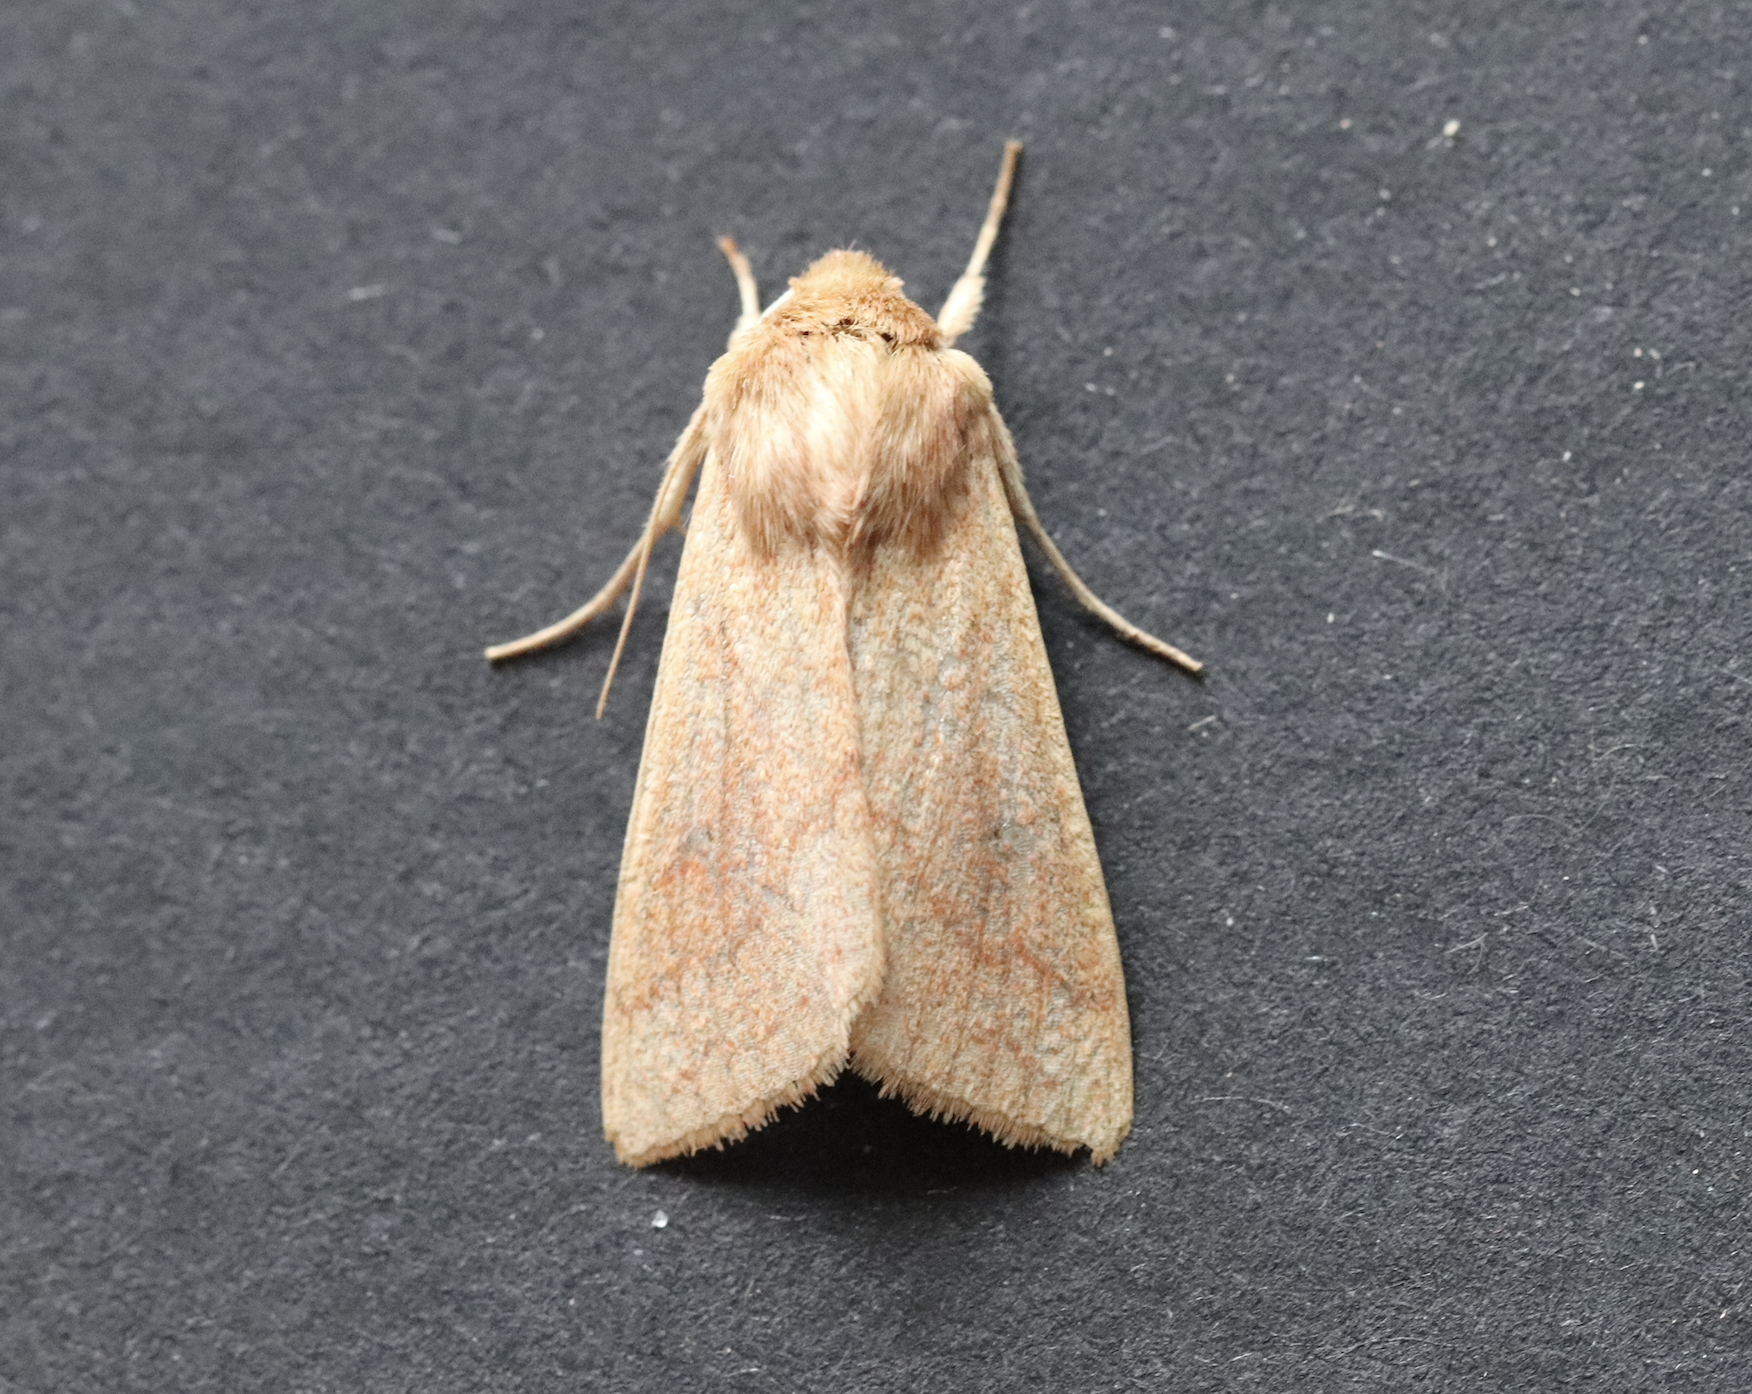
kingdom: Animalia
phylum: Arthropoda
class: Insecta
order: Lepidoptera
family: Noctuidae
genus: Mythimna
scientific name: Mythimna vitellina
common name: Delicate
